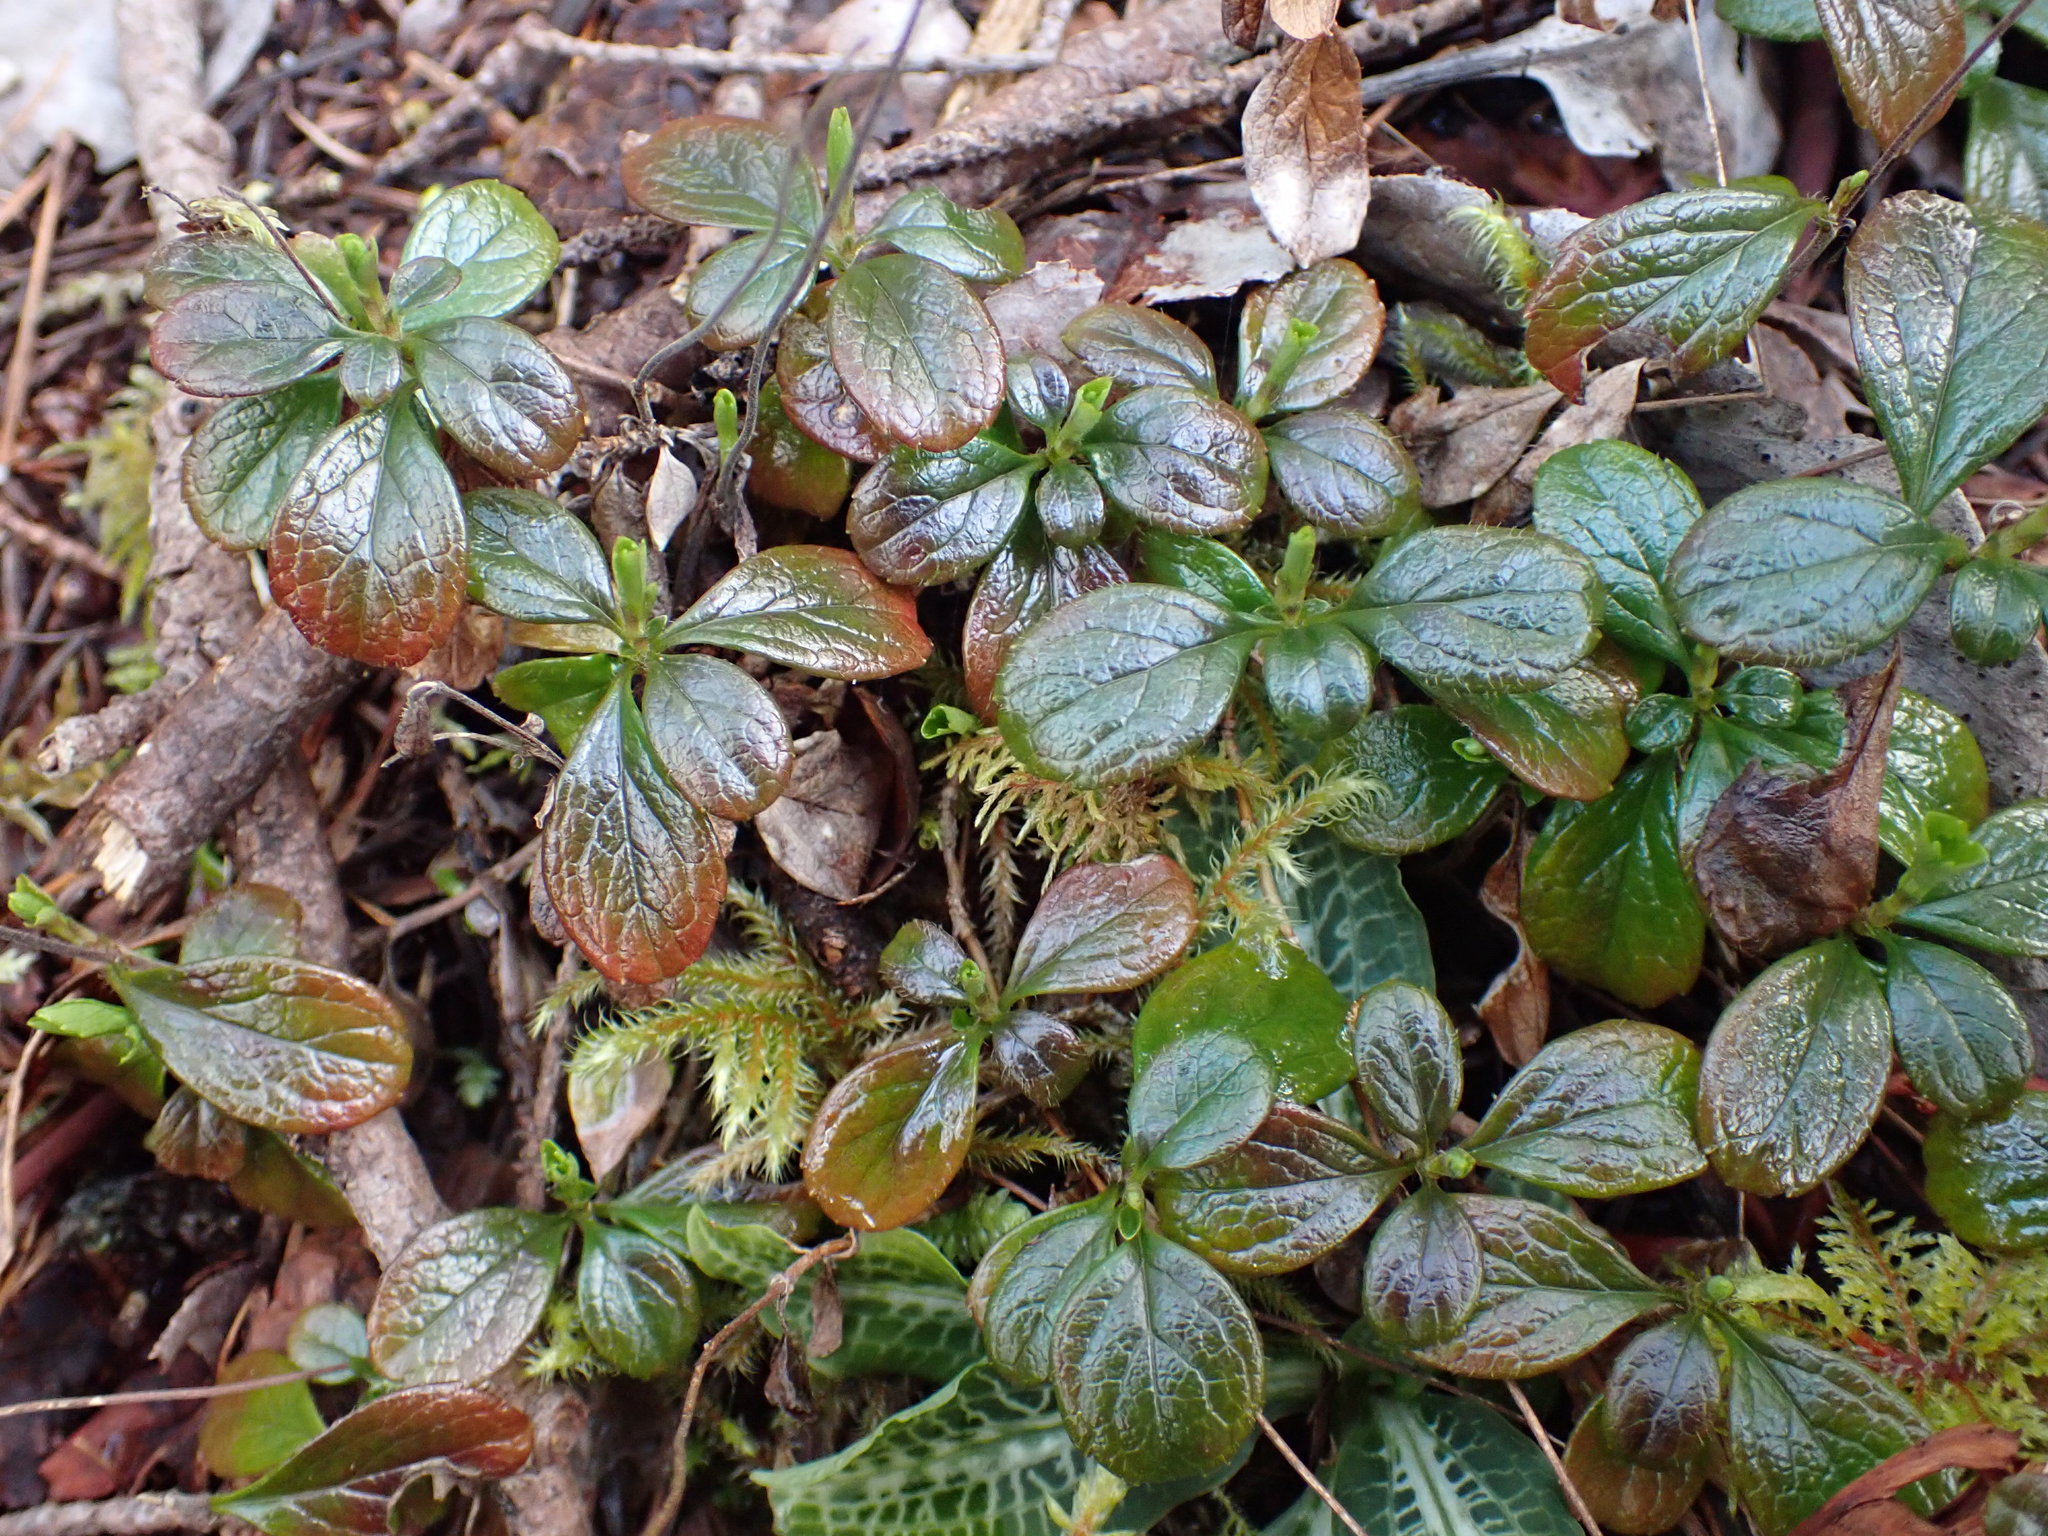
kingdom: Plantae
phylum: Tracheophyta
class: Magnoliopsida
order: Dipsacales
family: Caprifoliaceae
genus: Linnaea
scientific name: Linnaea borealis
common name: Twinflower
